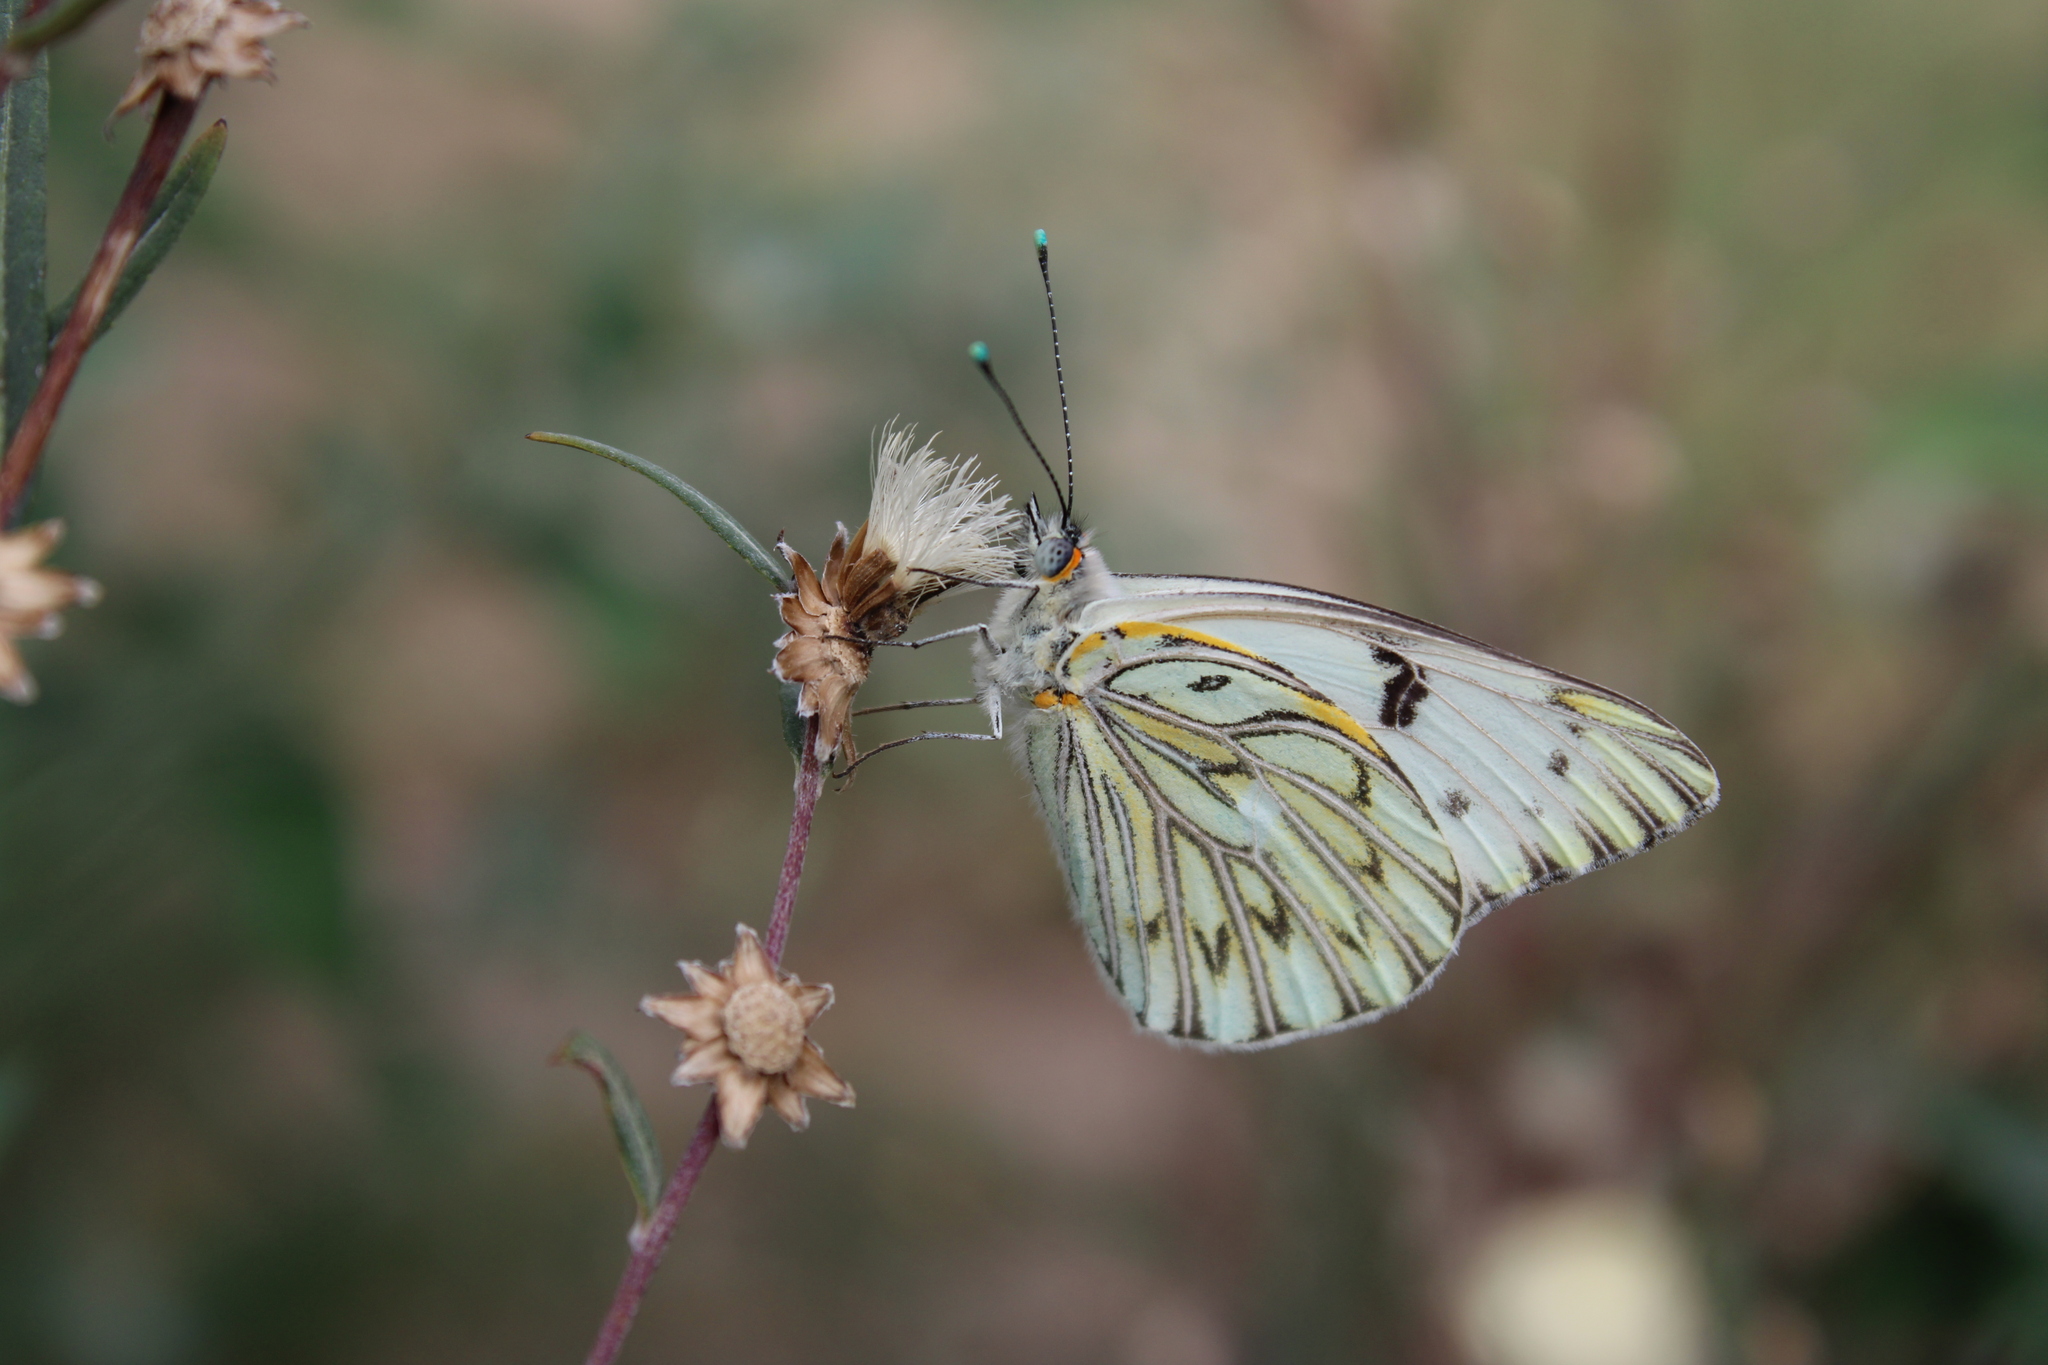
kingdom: Animalia
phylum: Arthropoda
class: Insecta
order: Lepidoptera
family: Pieridae
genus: Tatochila
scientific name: Tatochila autodice
